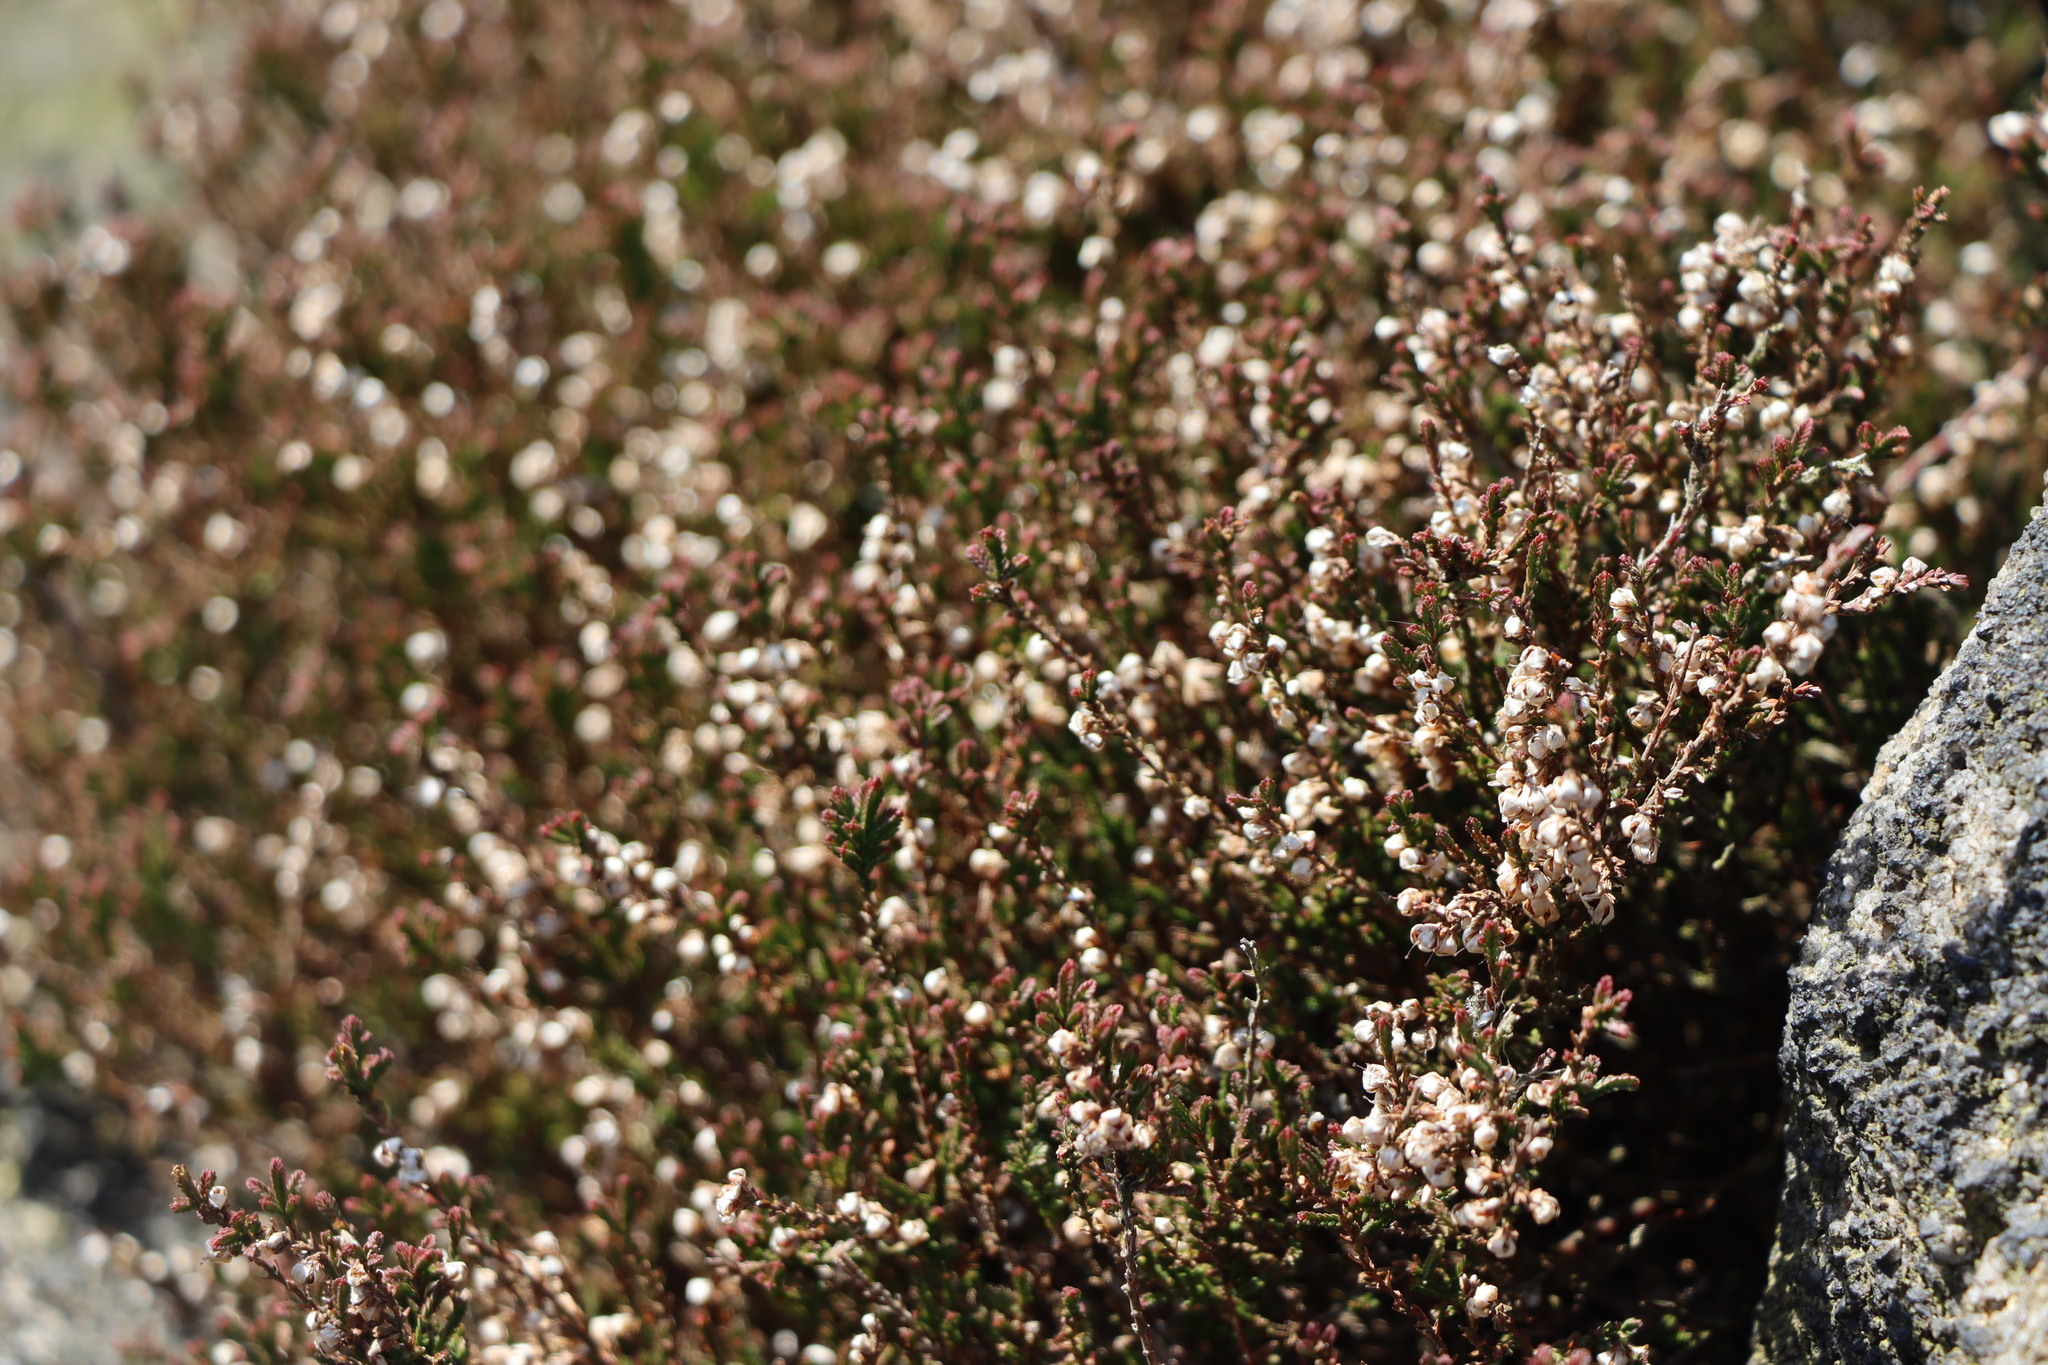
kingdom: Plantae
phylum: Tracheophyta
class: Magnoliopsida
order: Ericales
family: Ericaceae
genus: Calluna
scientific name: Calluna vulgaris
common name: Heather
